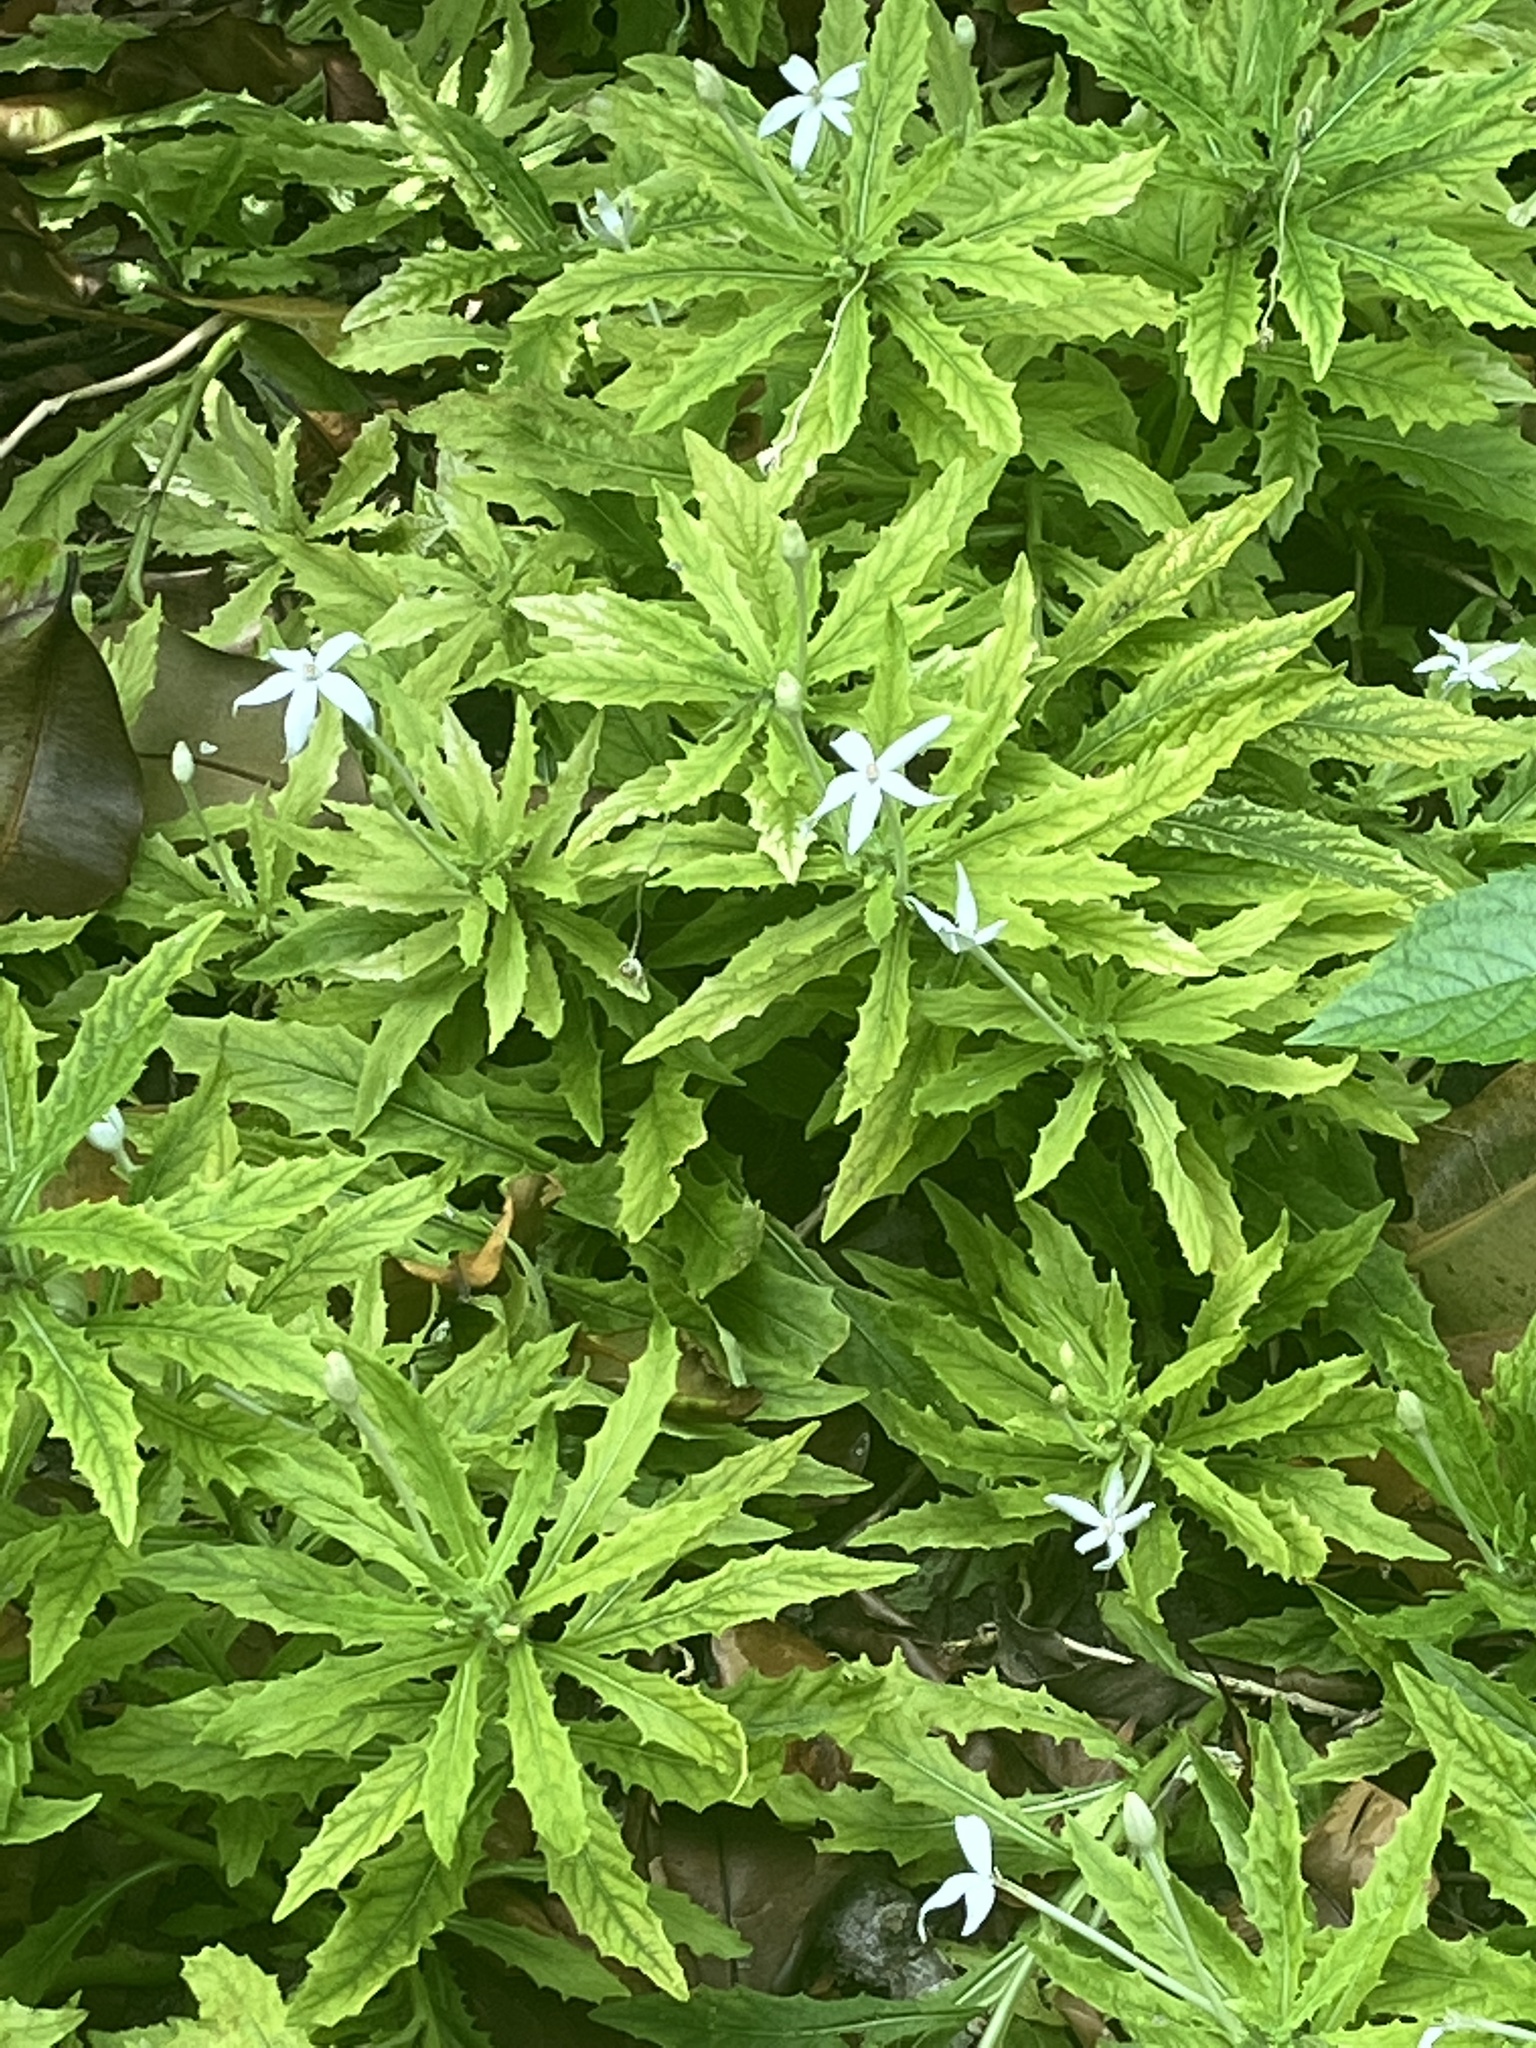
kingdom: Plantae
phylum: Tracheophyta
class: Magnoliopsida
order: Asterales
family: Campanulaceae
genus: Hippobroma
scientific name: Hippobroma longiflora
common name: Madamfate
